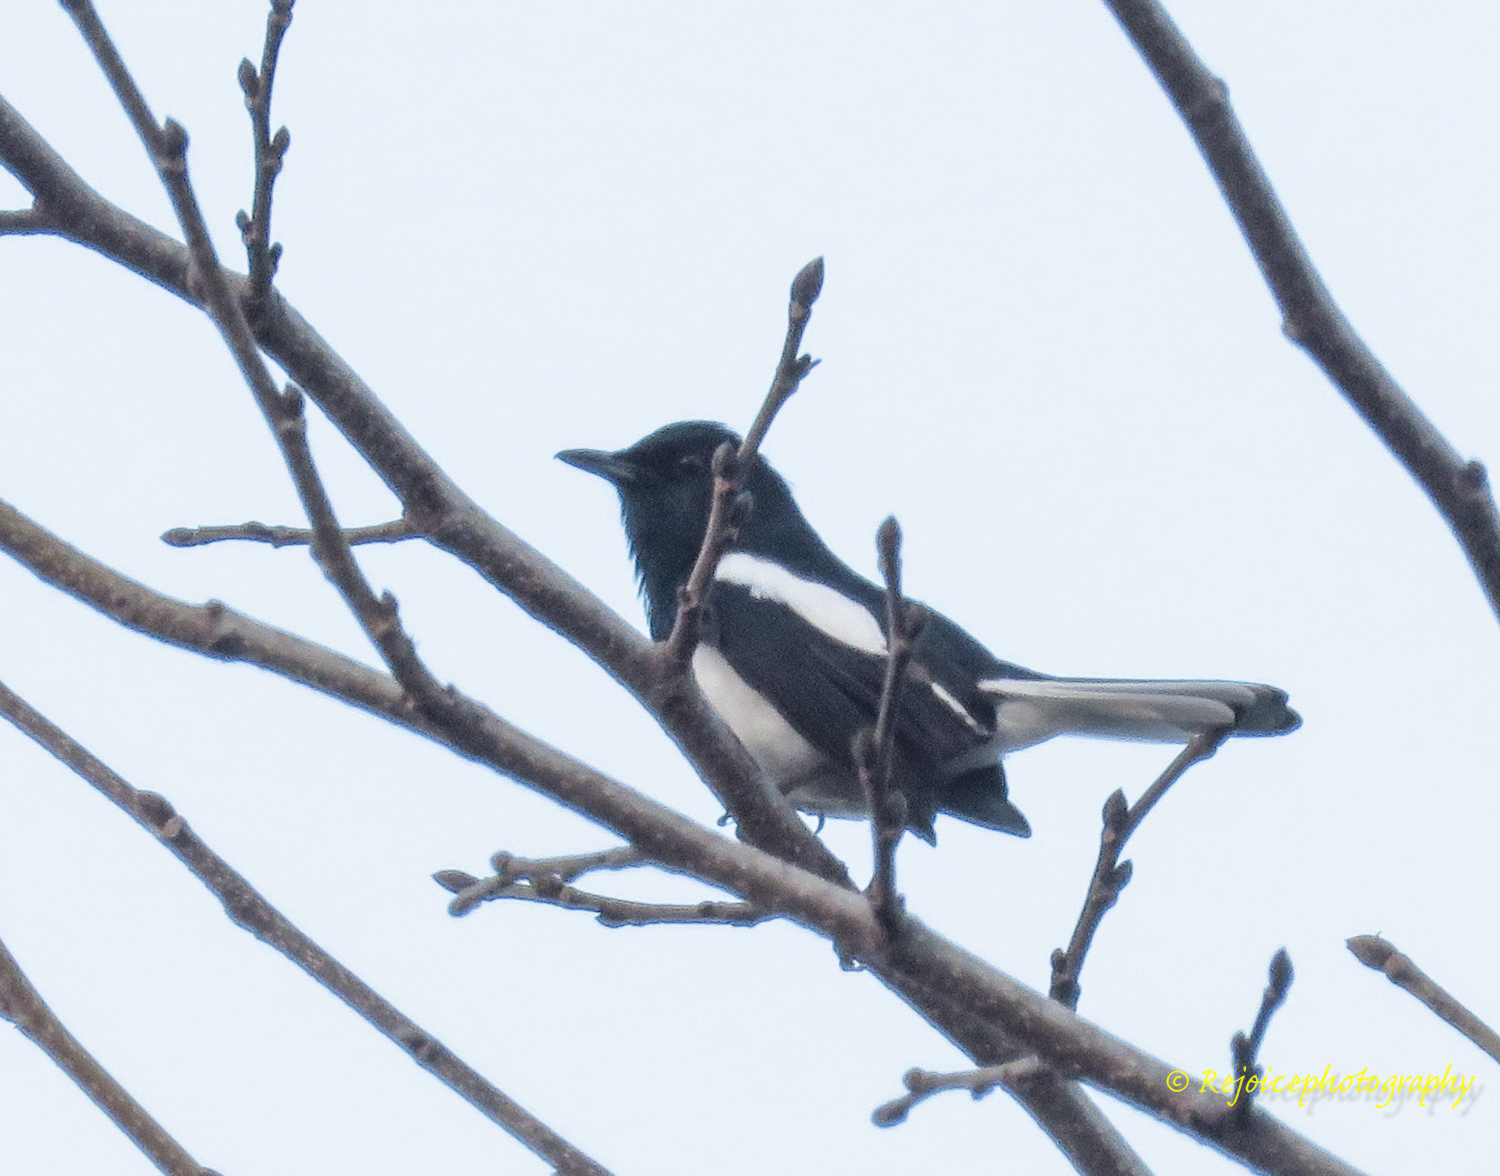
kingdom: Animalia
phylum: Chordata
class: Aves
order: Passeriformes
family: Muscicapidae
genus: Copsychus
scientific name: Copsychus saularis
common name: Oriental magpie-robin
